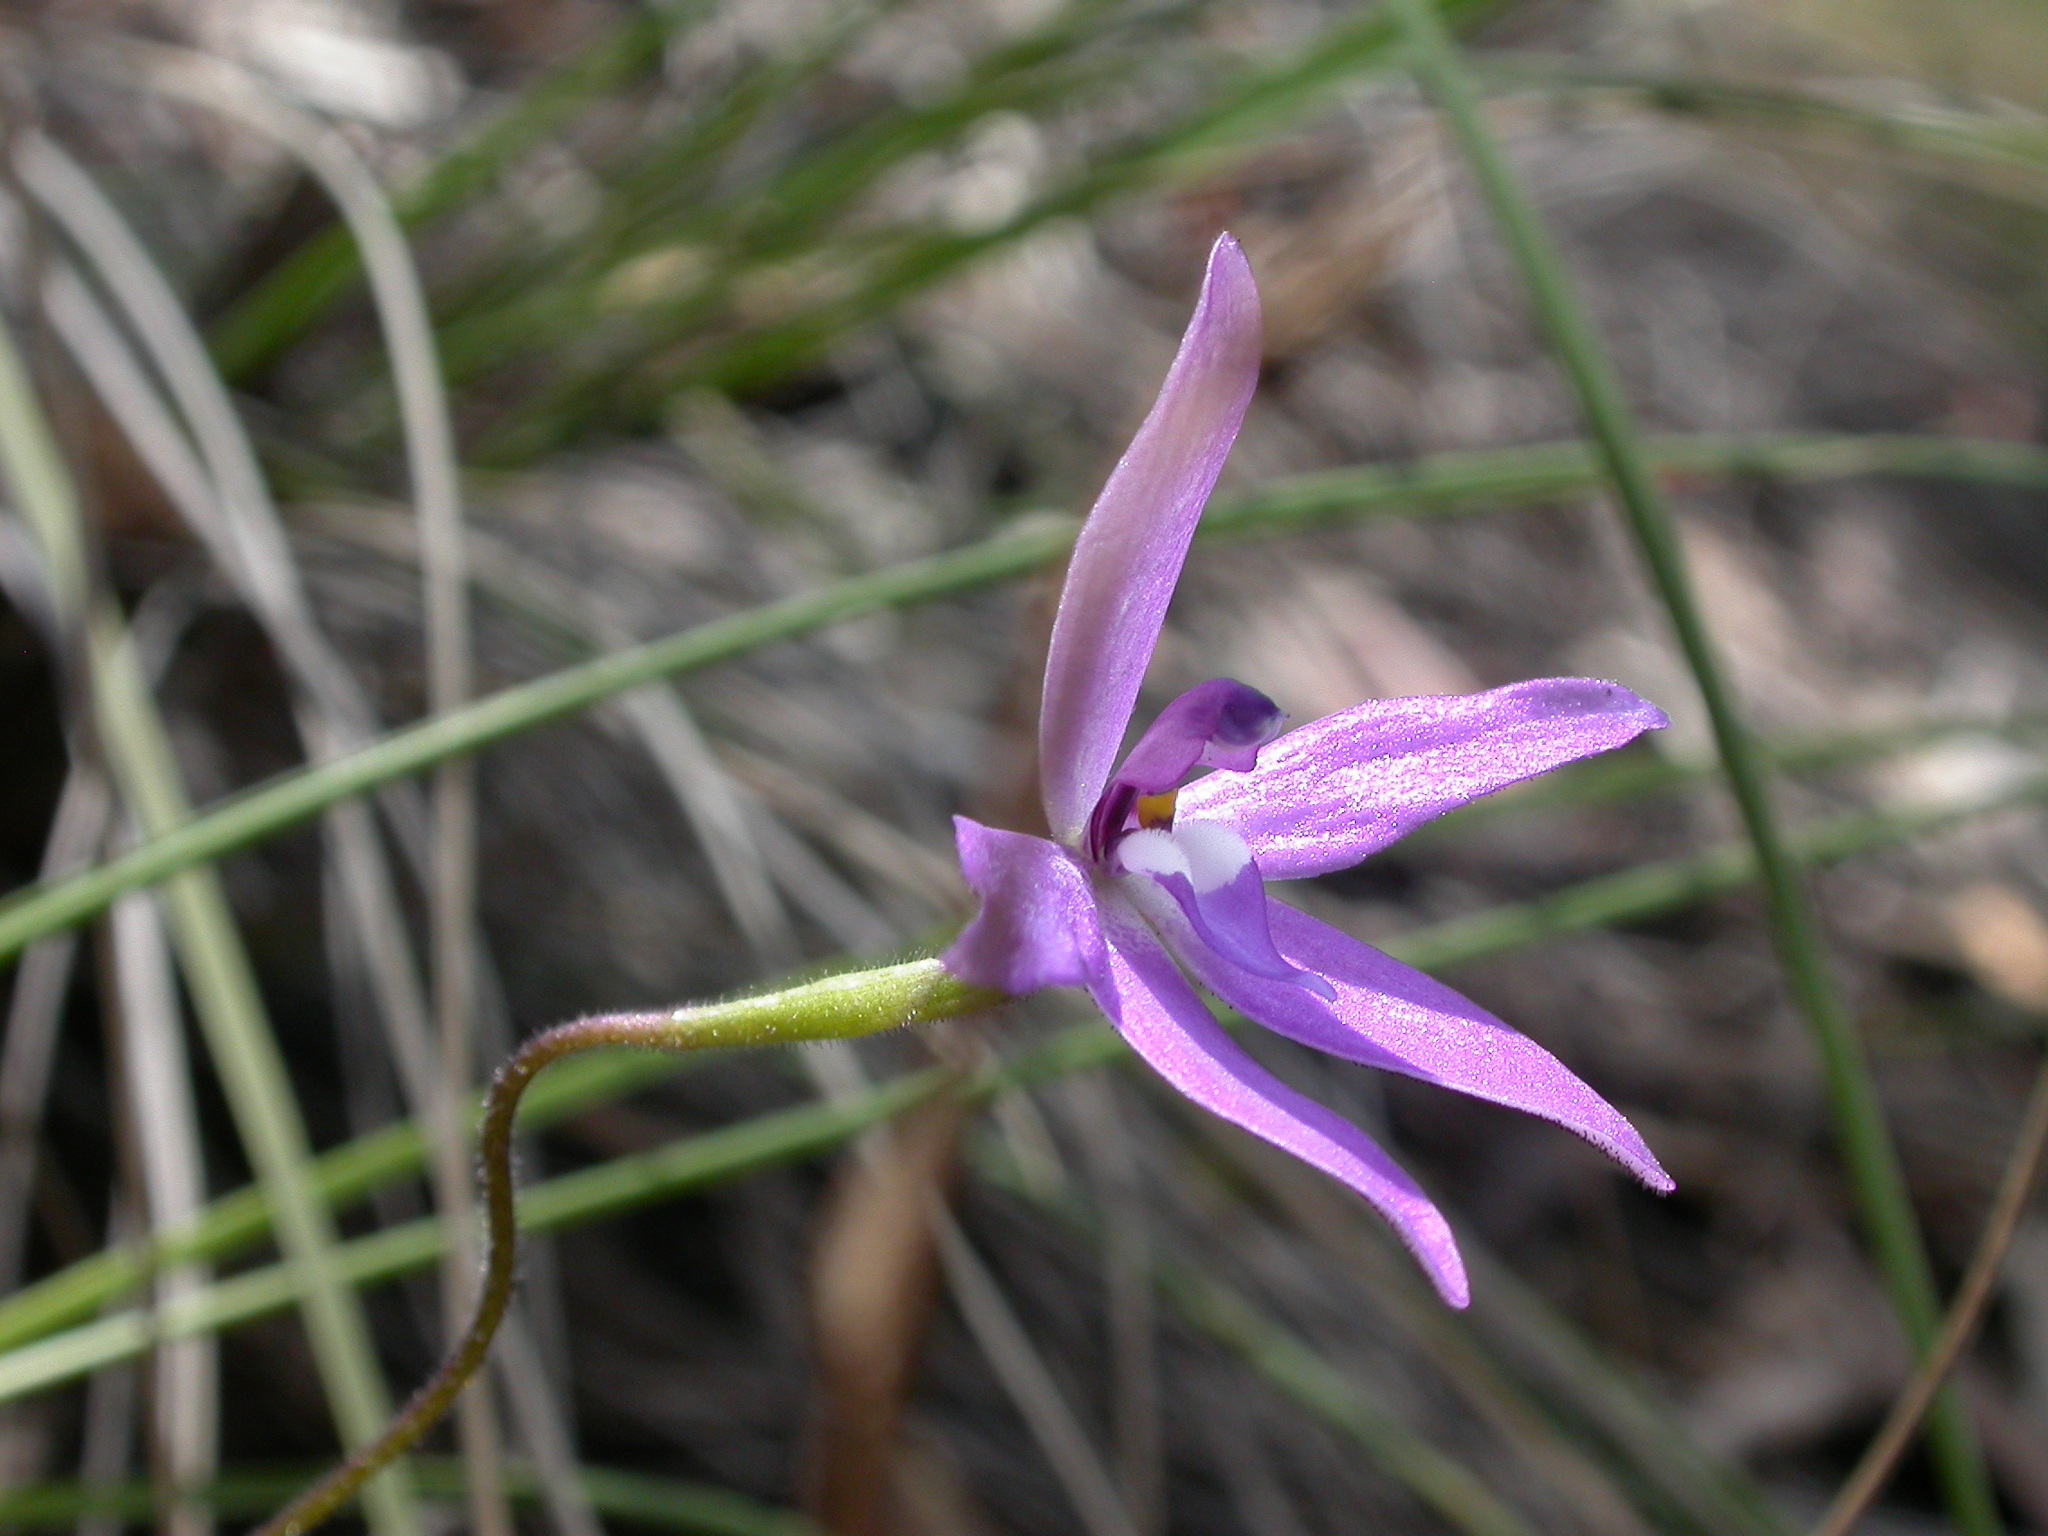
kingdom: Plantae
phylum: Tracheophyta
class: Liliopsida
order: Asparagales
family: Orchidaceae
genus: Caladenia
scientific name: Caladenia major
